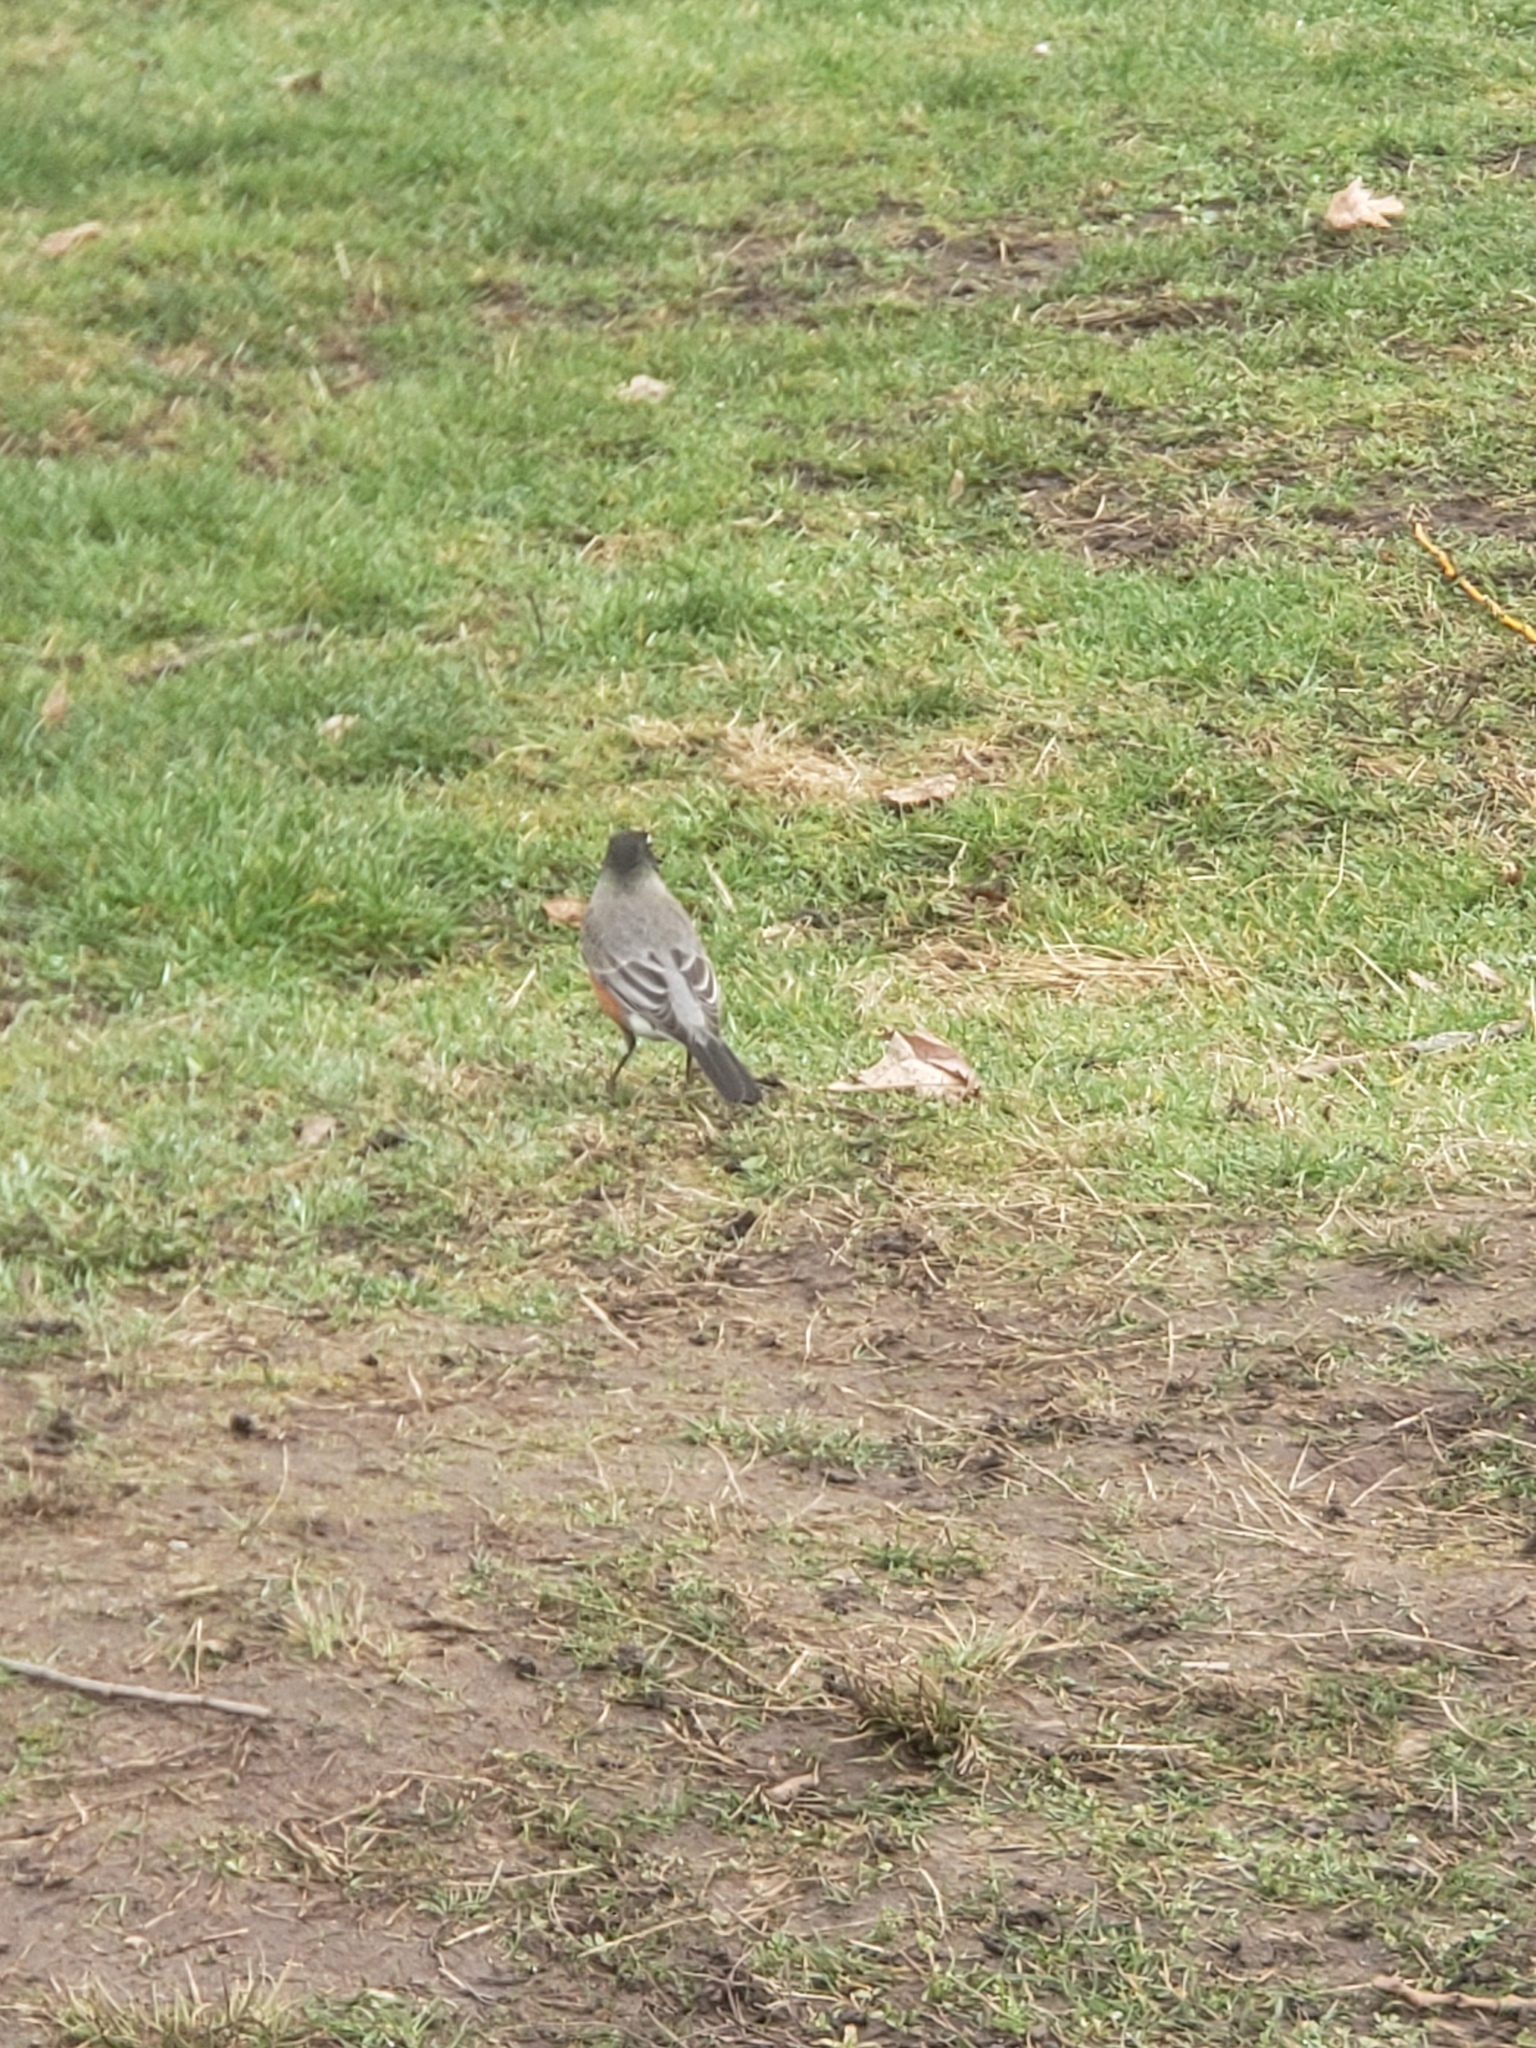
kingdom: Animalia
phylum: Chordata
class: Aves
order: Passeriformes
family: Turdidae
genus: Turdus
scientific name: Turdus migratorius
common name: American robin
